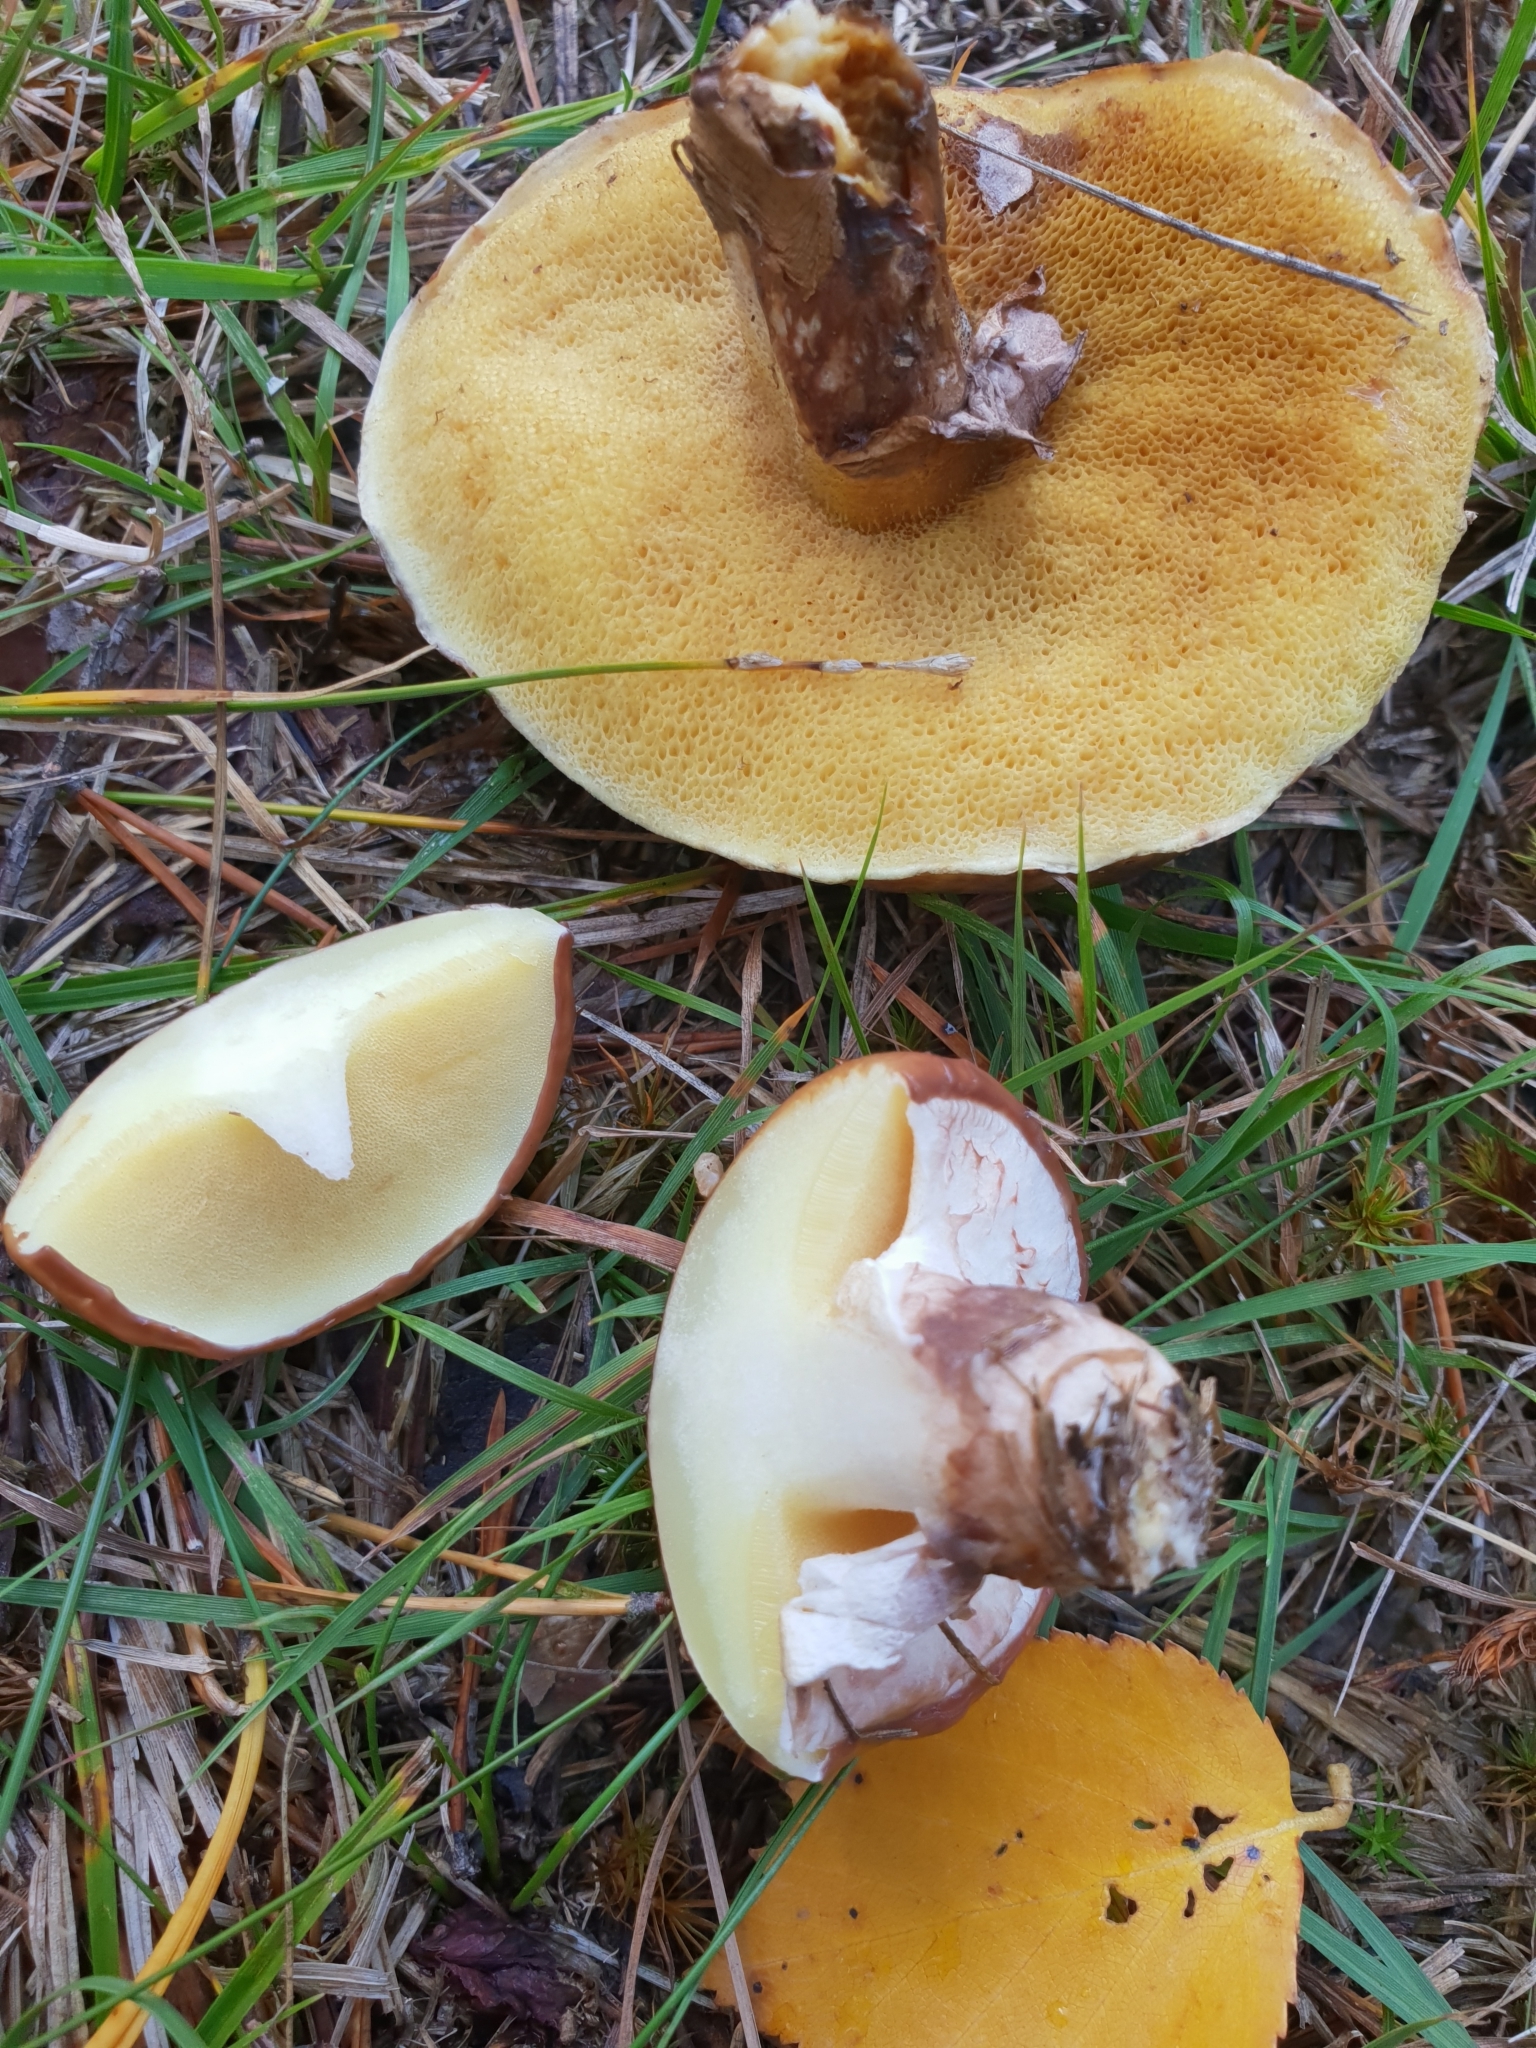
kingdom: Fungi
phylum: Basidiomycota
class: Agaricomycetes
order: Boletales
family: Suillaceae
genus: Suillus
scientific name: Suillus luteus
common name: Slippery jack
